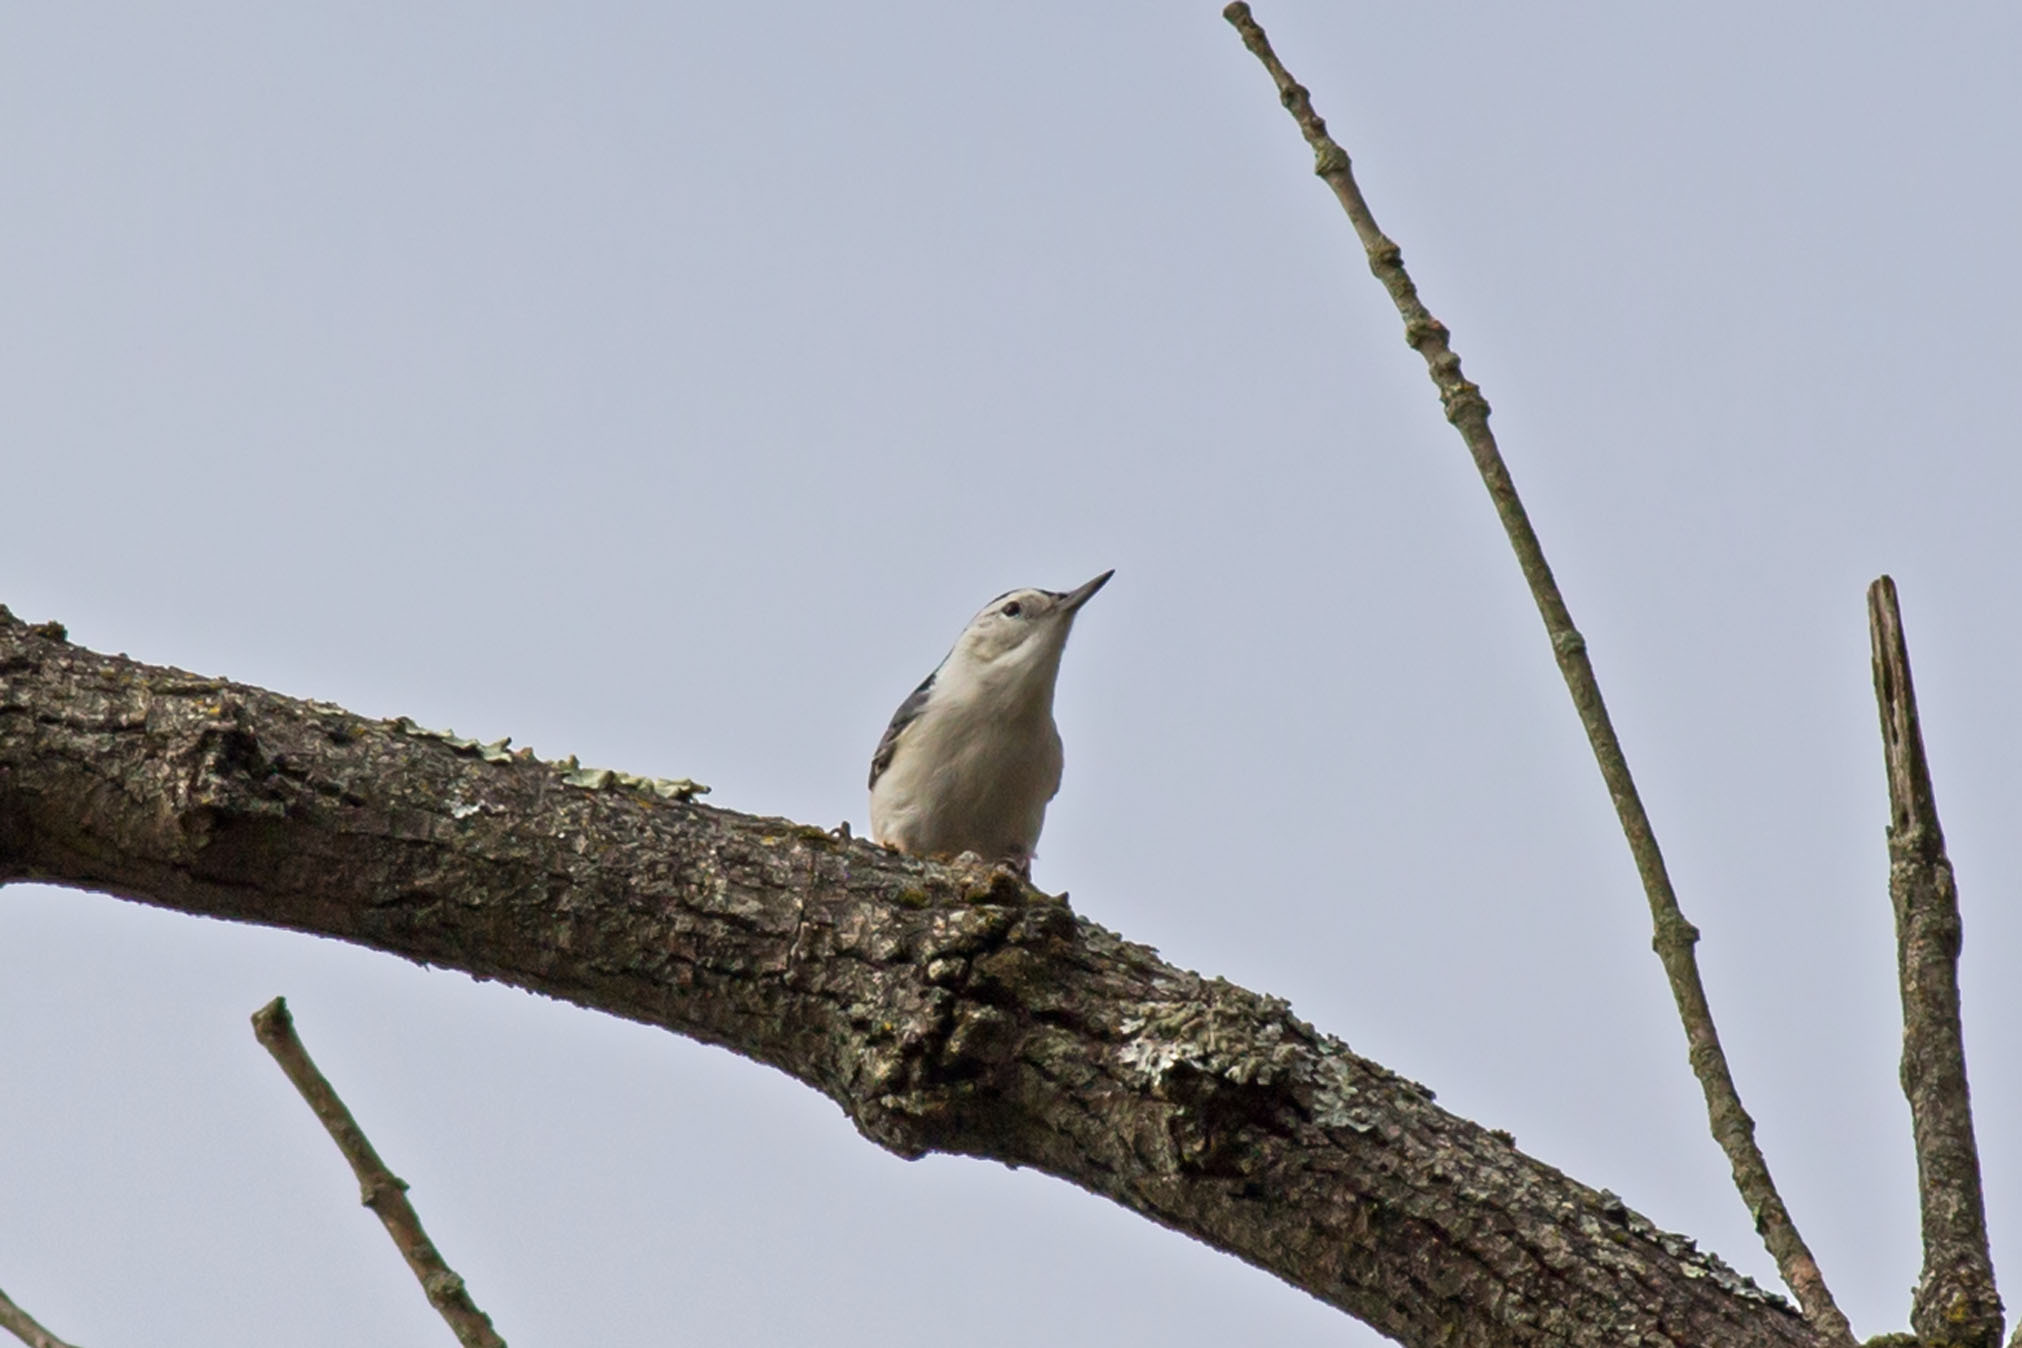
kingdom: Animalia
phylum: Chordata
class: Aves
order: Passeriformes
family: Sittidae
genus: Sitta
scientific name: Sitta carolinensis
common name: White-breasted nuthatch
